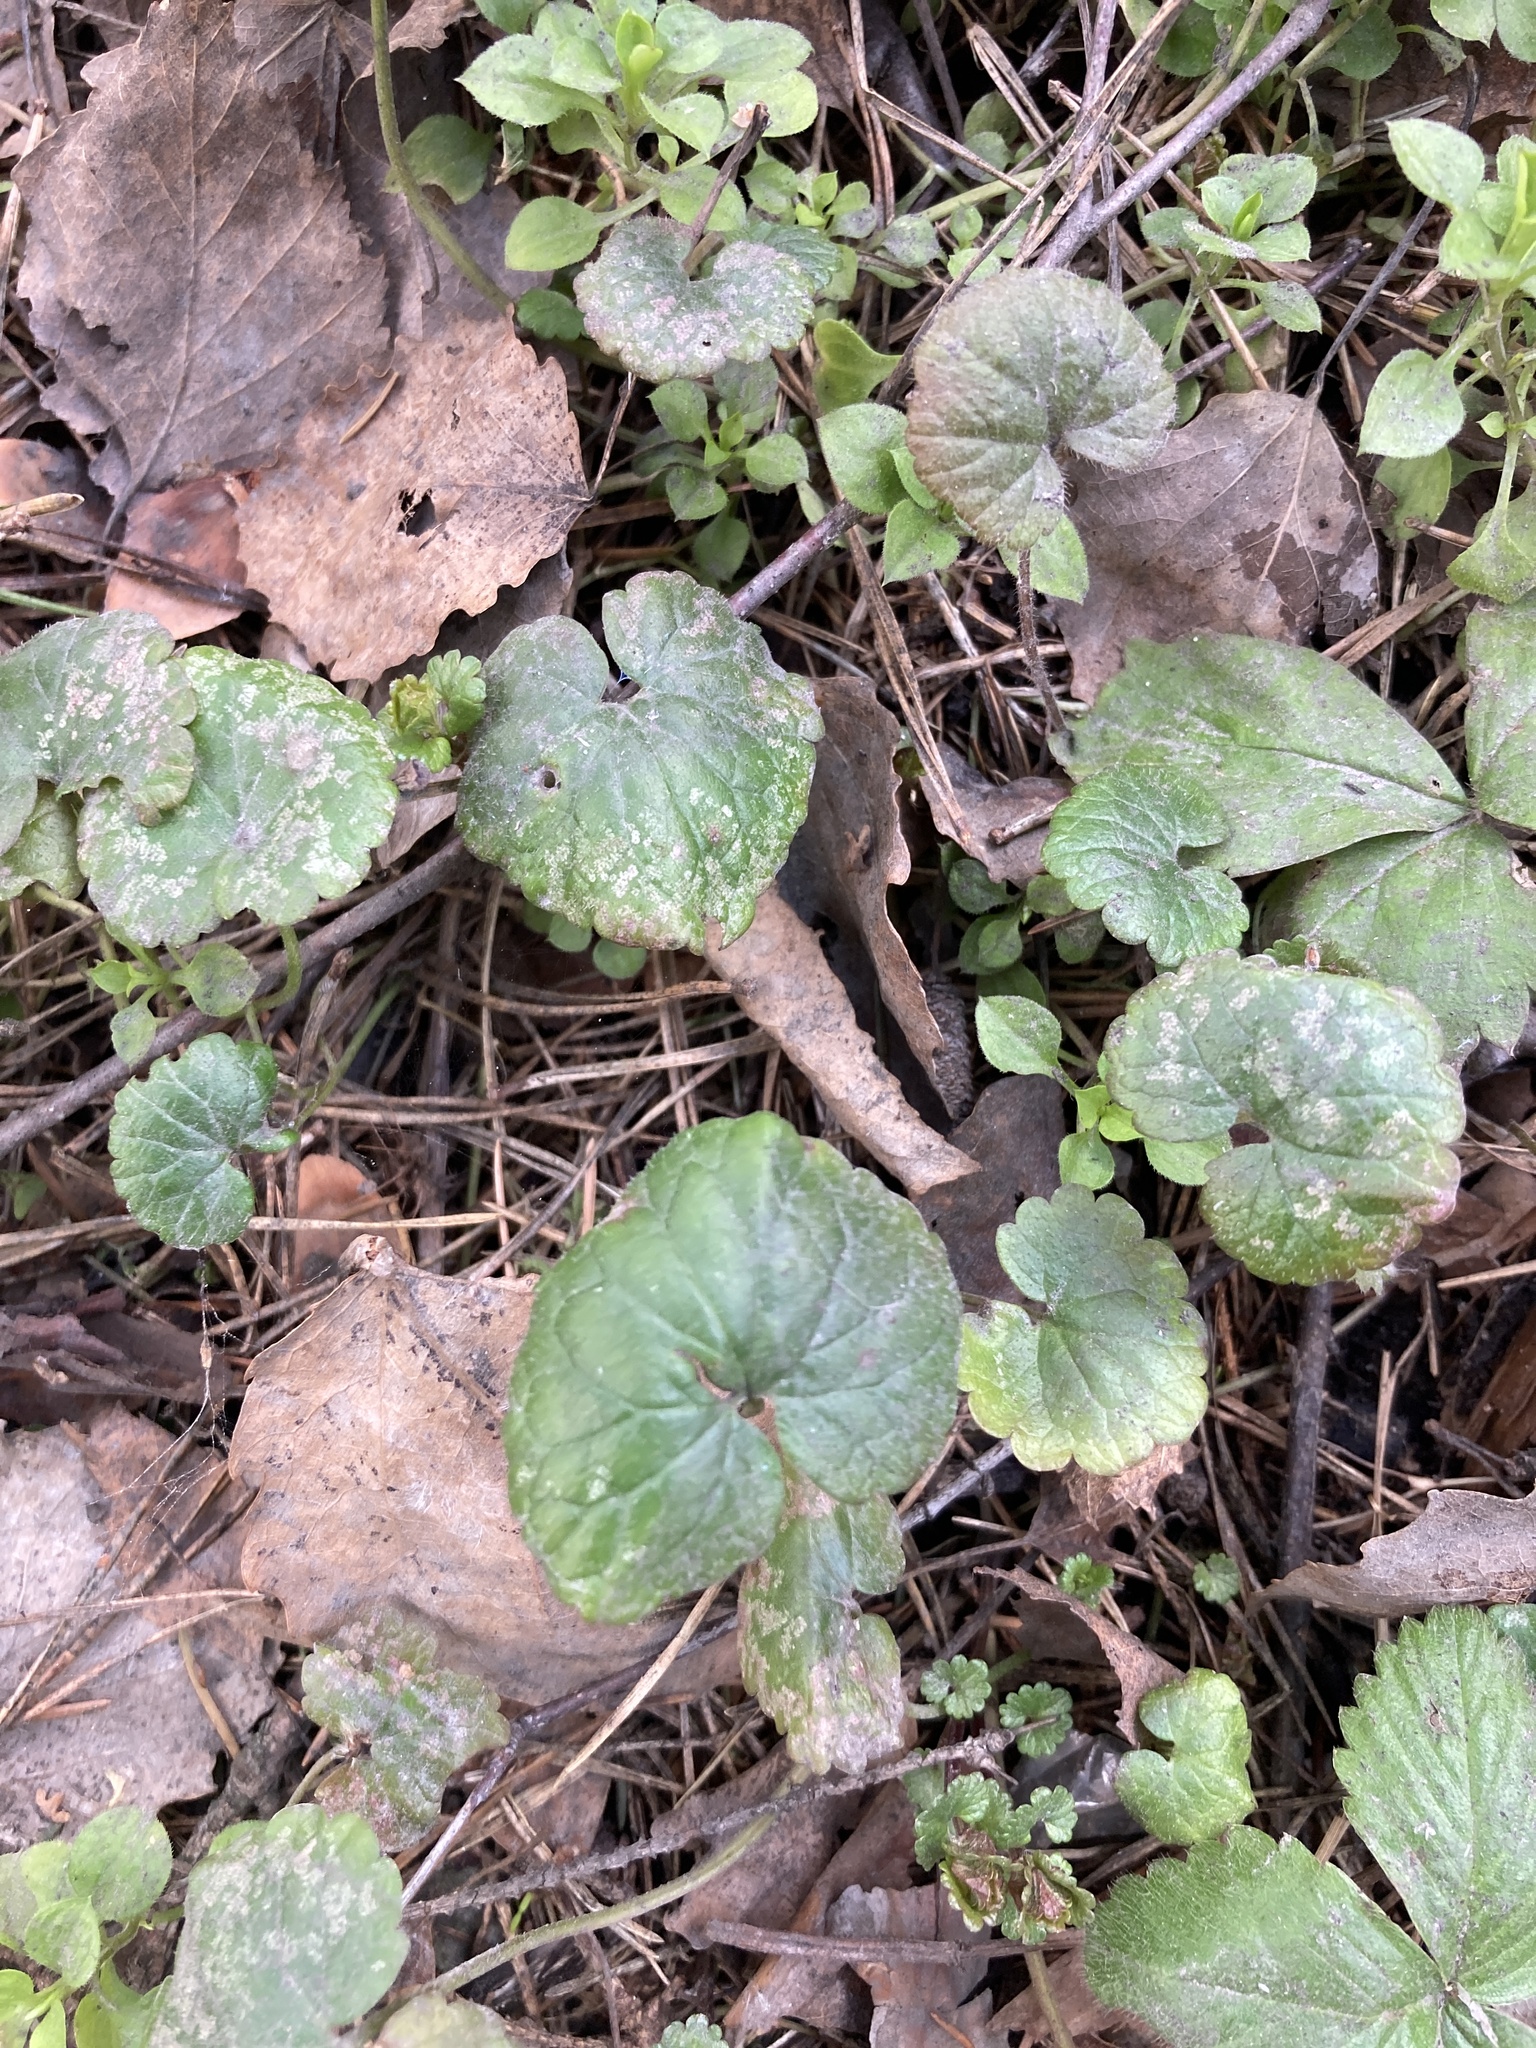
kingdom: Plantae
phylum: Tracheophyta
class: Magnoliopsida
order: Lamiales
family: Lamiaceae
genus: Glechoma
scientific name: Glechoma hederacea
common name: Ground ivy
